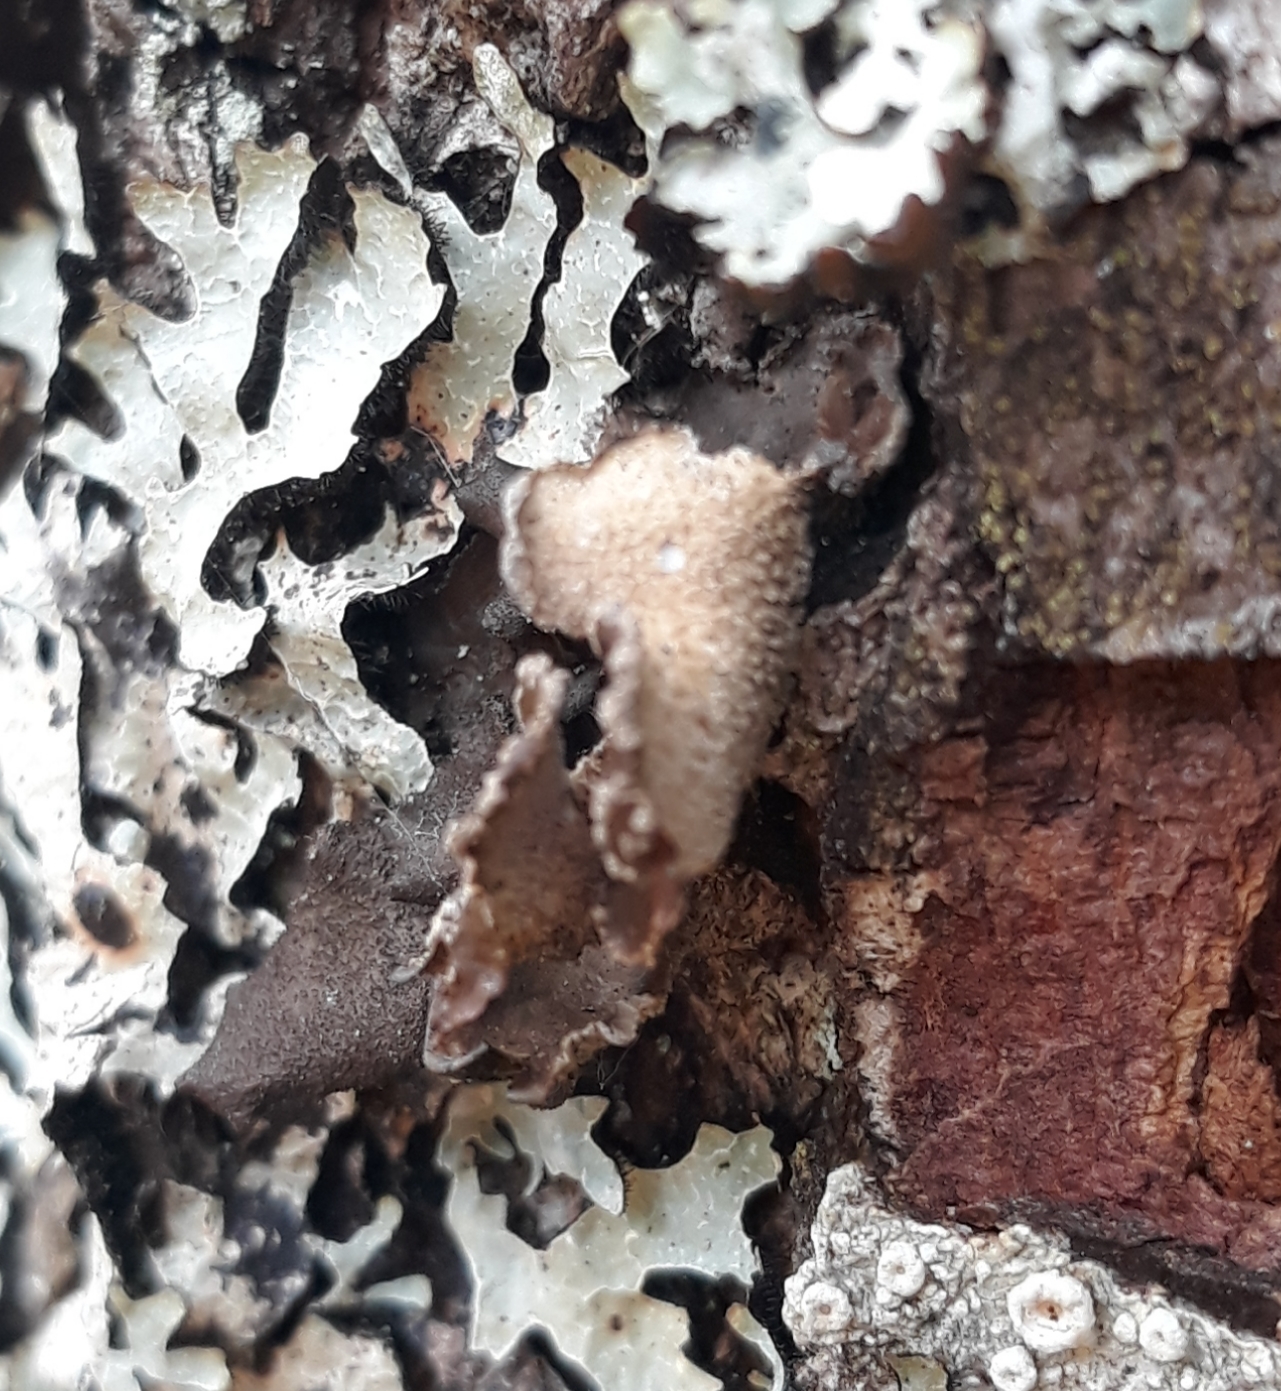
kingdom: Fungi
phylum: Ascomycota
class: Lecanoromycetes
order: Peltigerales
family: Lobariaceae
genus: Sticta
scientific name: Sticta fuliginosa
